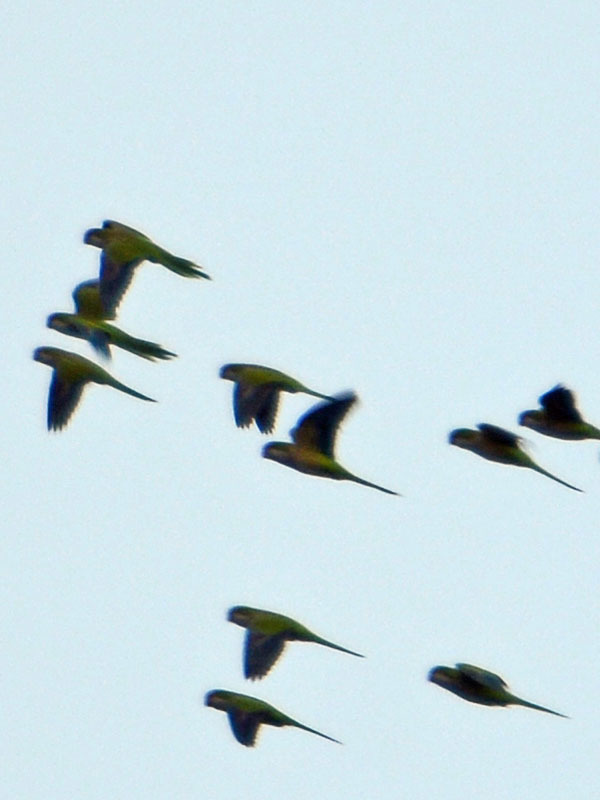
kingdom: Animalia
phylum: Chordata
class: Aves
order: Psittaciformes
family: Psittacidae
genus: Myiopsitta
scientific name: Myiopsitta monachus
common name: Monk parakeet
